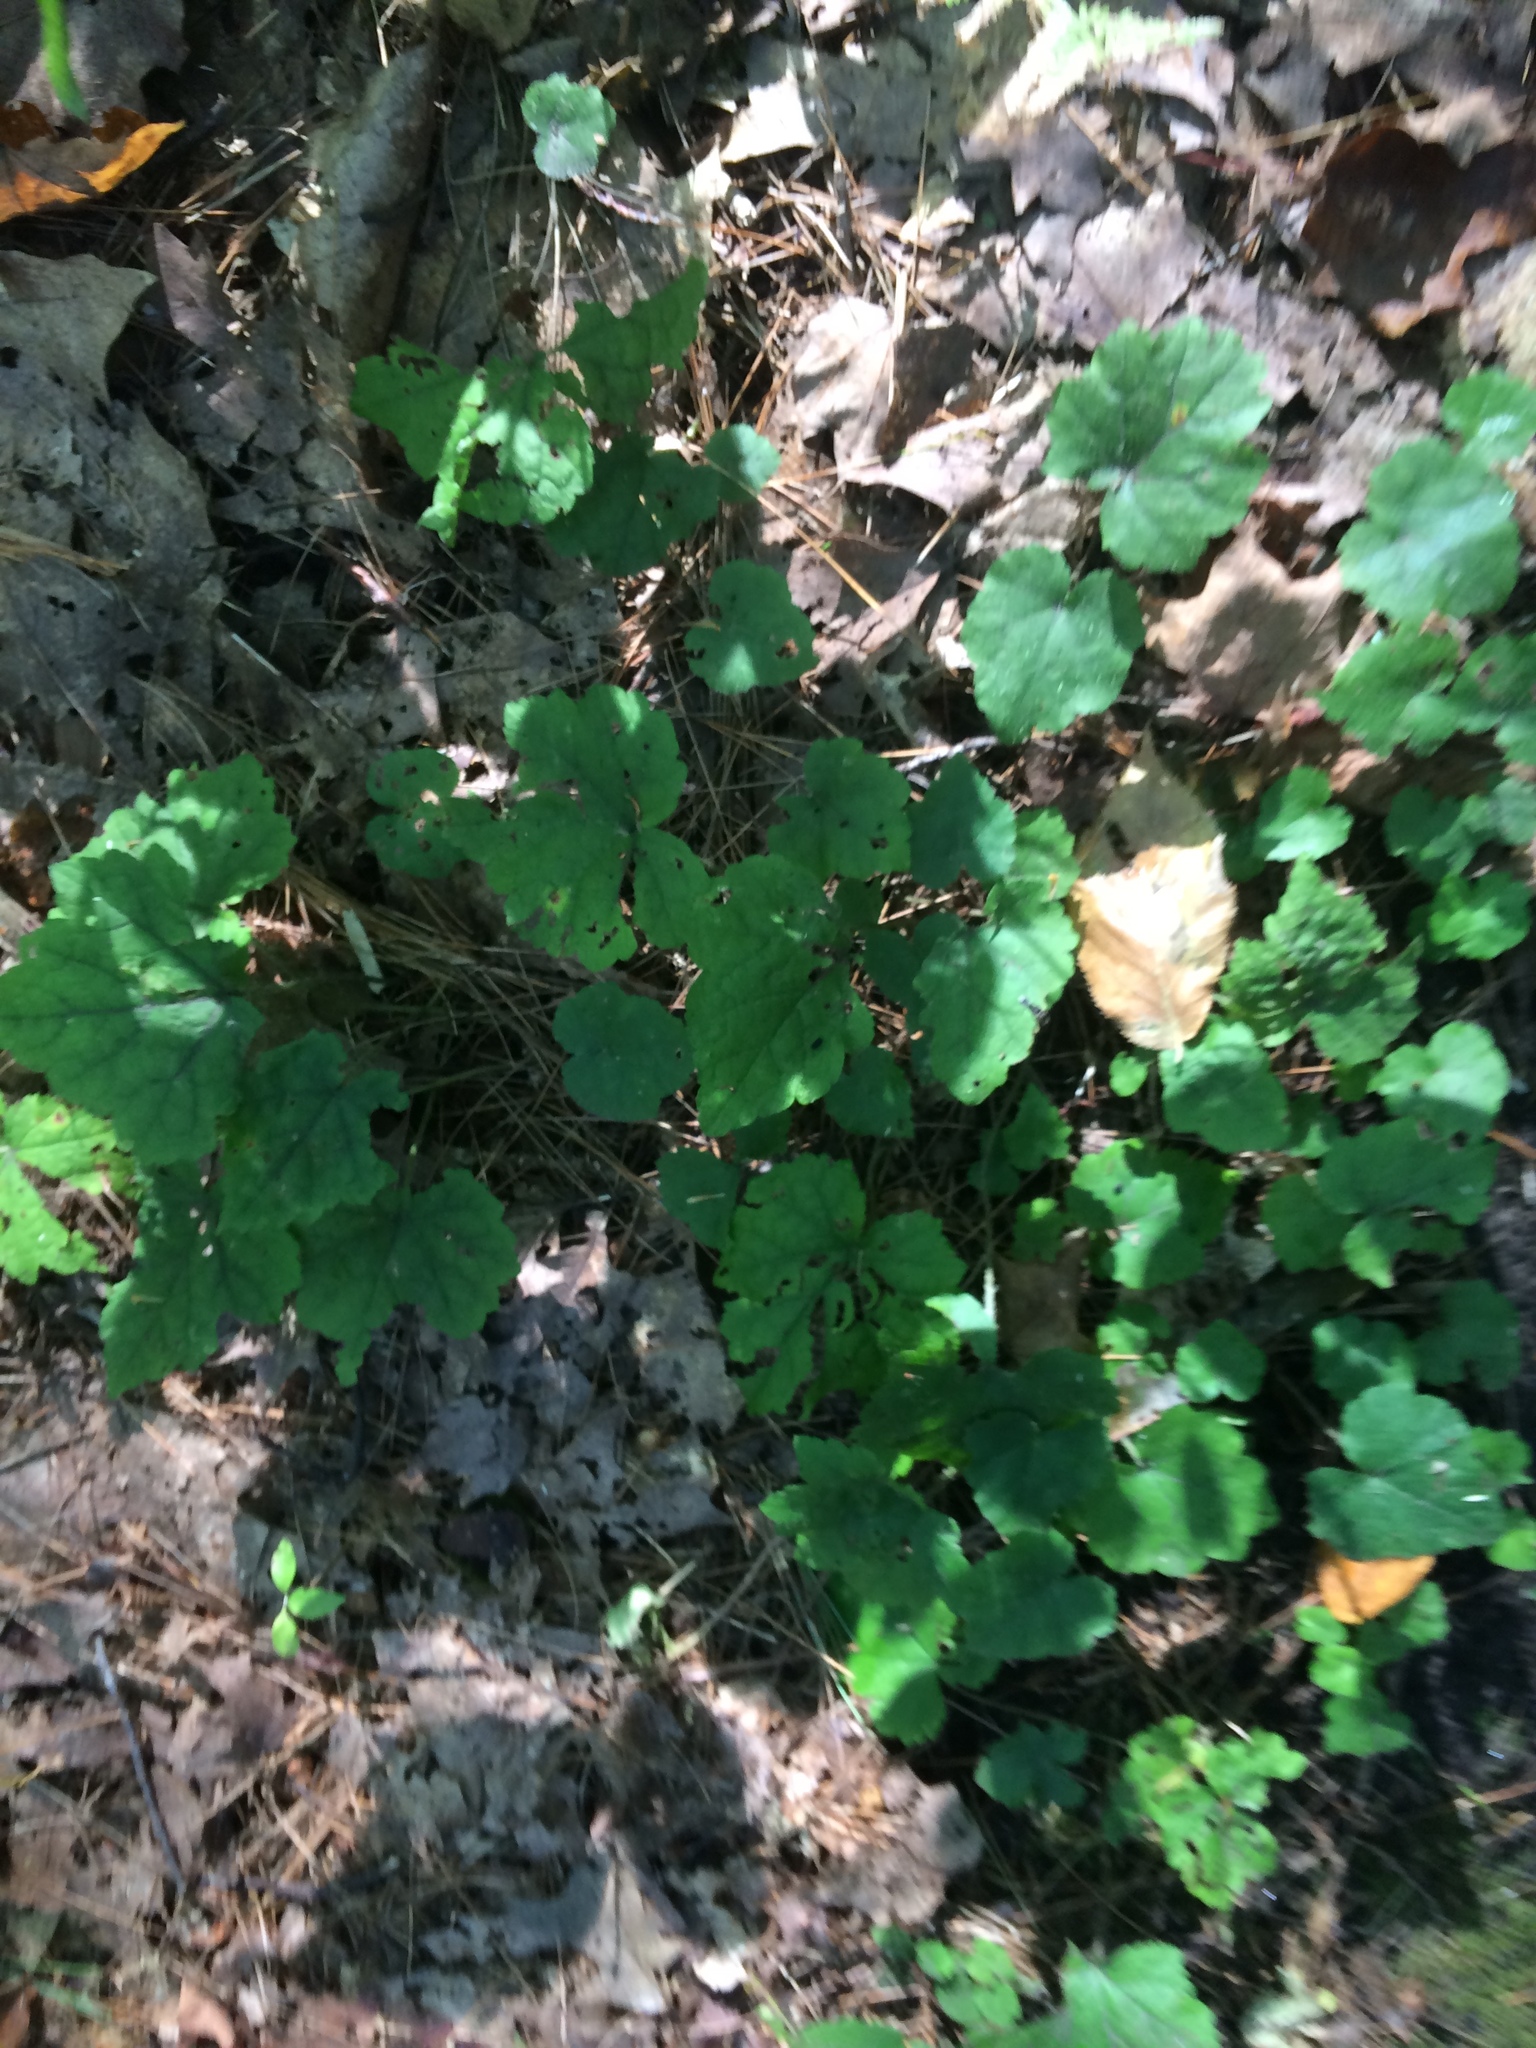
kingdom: Plantae
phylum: Tracheophyta
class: Magnoliopsida
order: Saxifragales
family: Saxifragaceae
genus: Tiarella
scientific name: Tiarella stolonifera
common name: Stoloniferous foamflower
